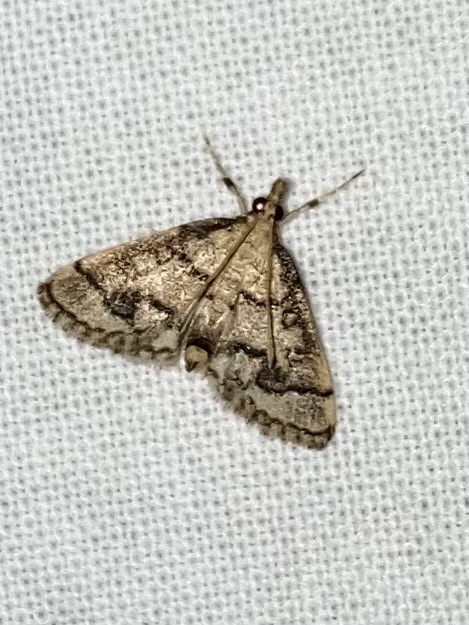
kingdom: Animalia
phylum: Arthropoda
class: Insecta
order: Lepidoptera
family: Crambidae
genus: Metasia
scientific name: Metasia ophialis
